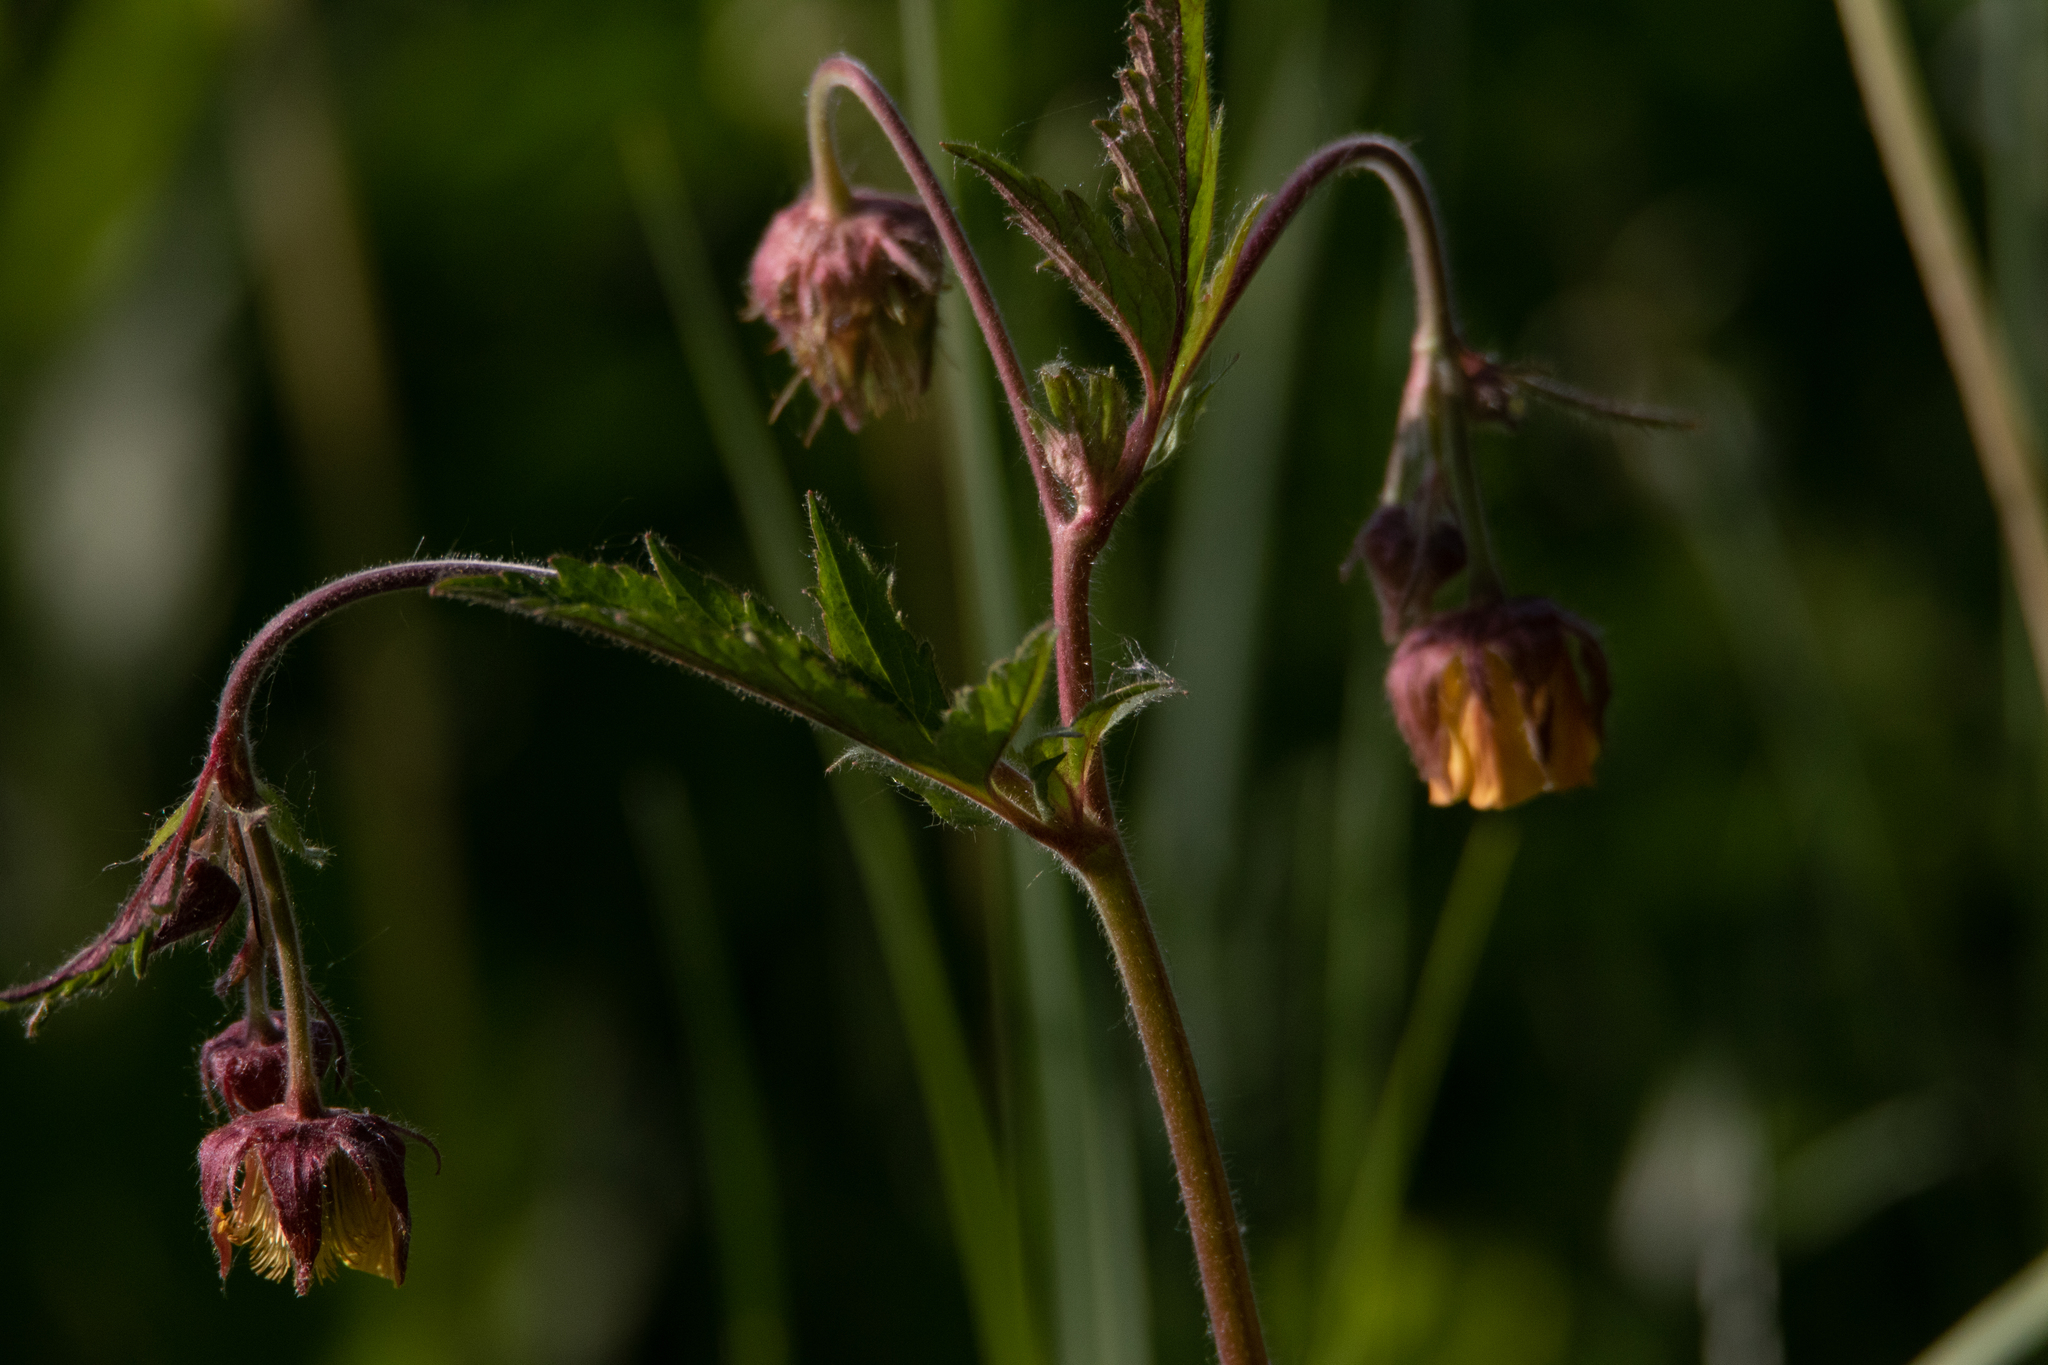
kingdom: Plantae
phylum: Tracheophyta
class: Magnoliopsida
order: Rosales
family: Rosaceae
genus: Geum
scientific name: Geum rivale
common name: Water avens
